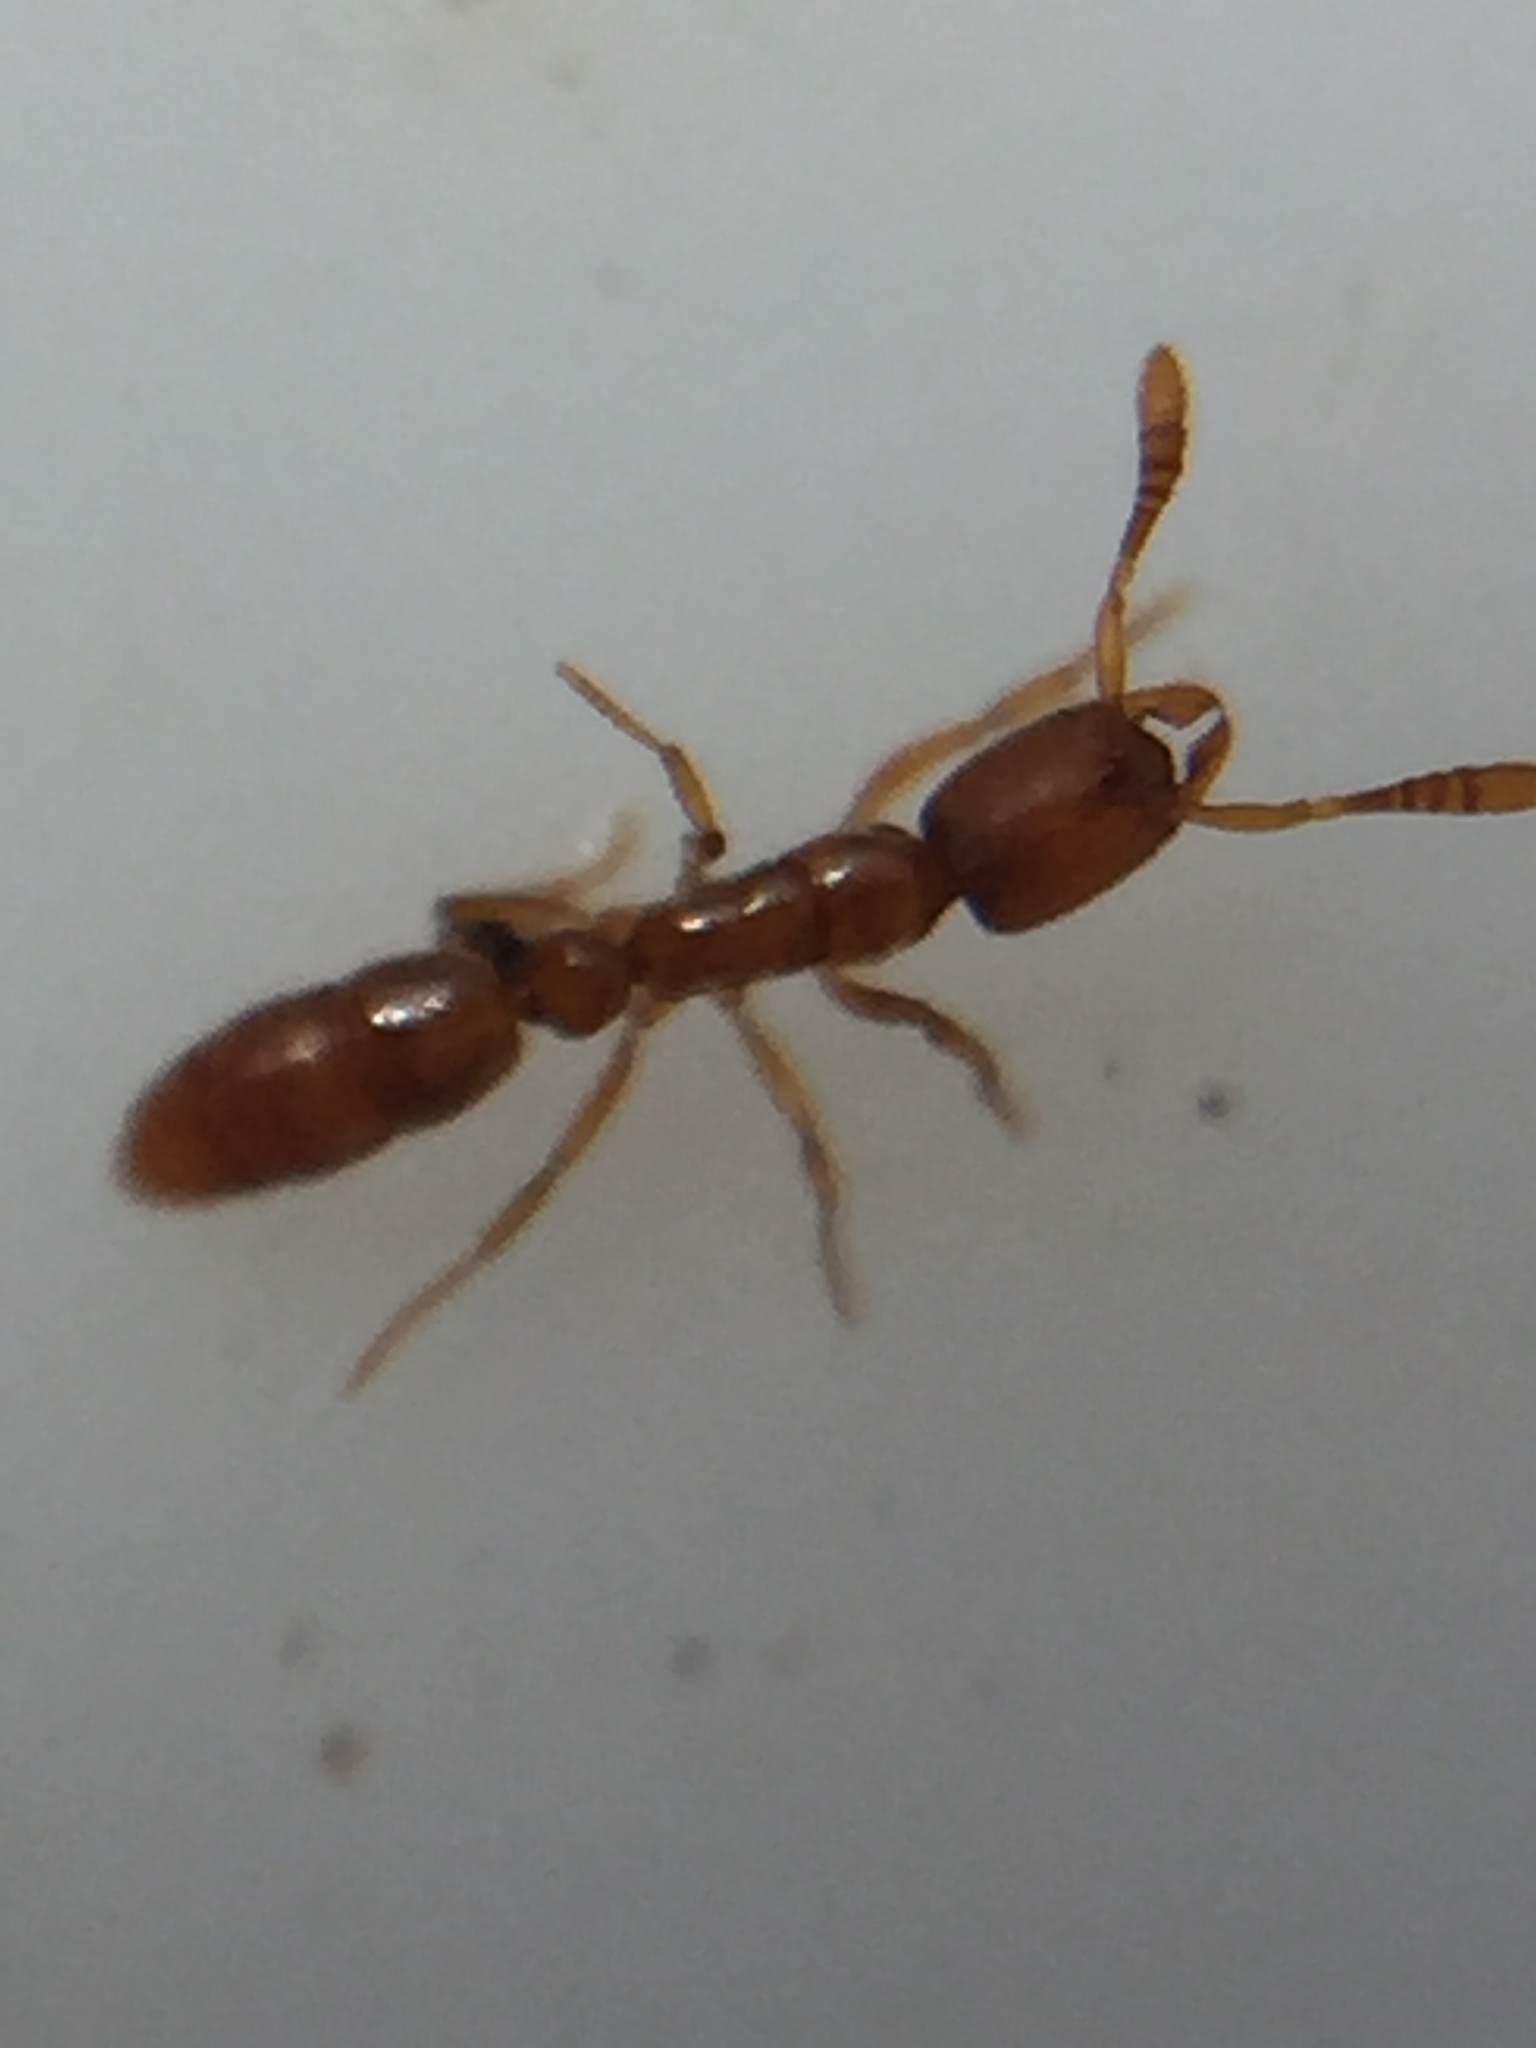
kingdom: Animalia
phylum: Arthropoda
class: Insecta
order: Hymenoptera
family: Formicidae
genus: Ponera
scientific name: Ponera leae
